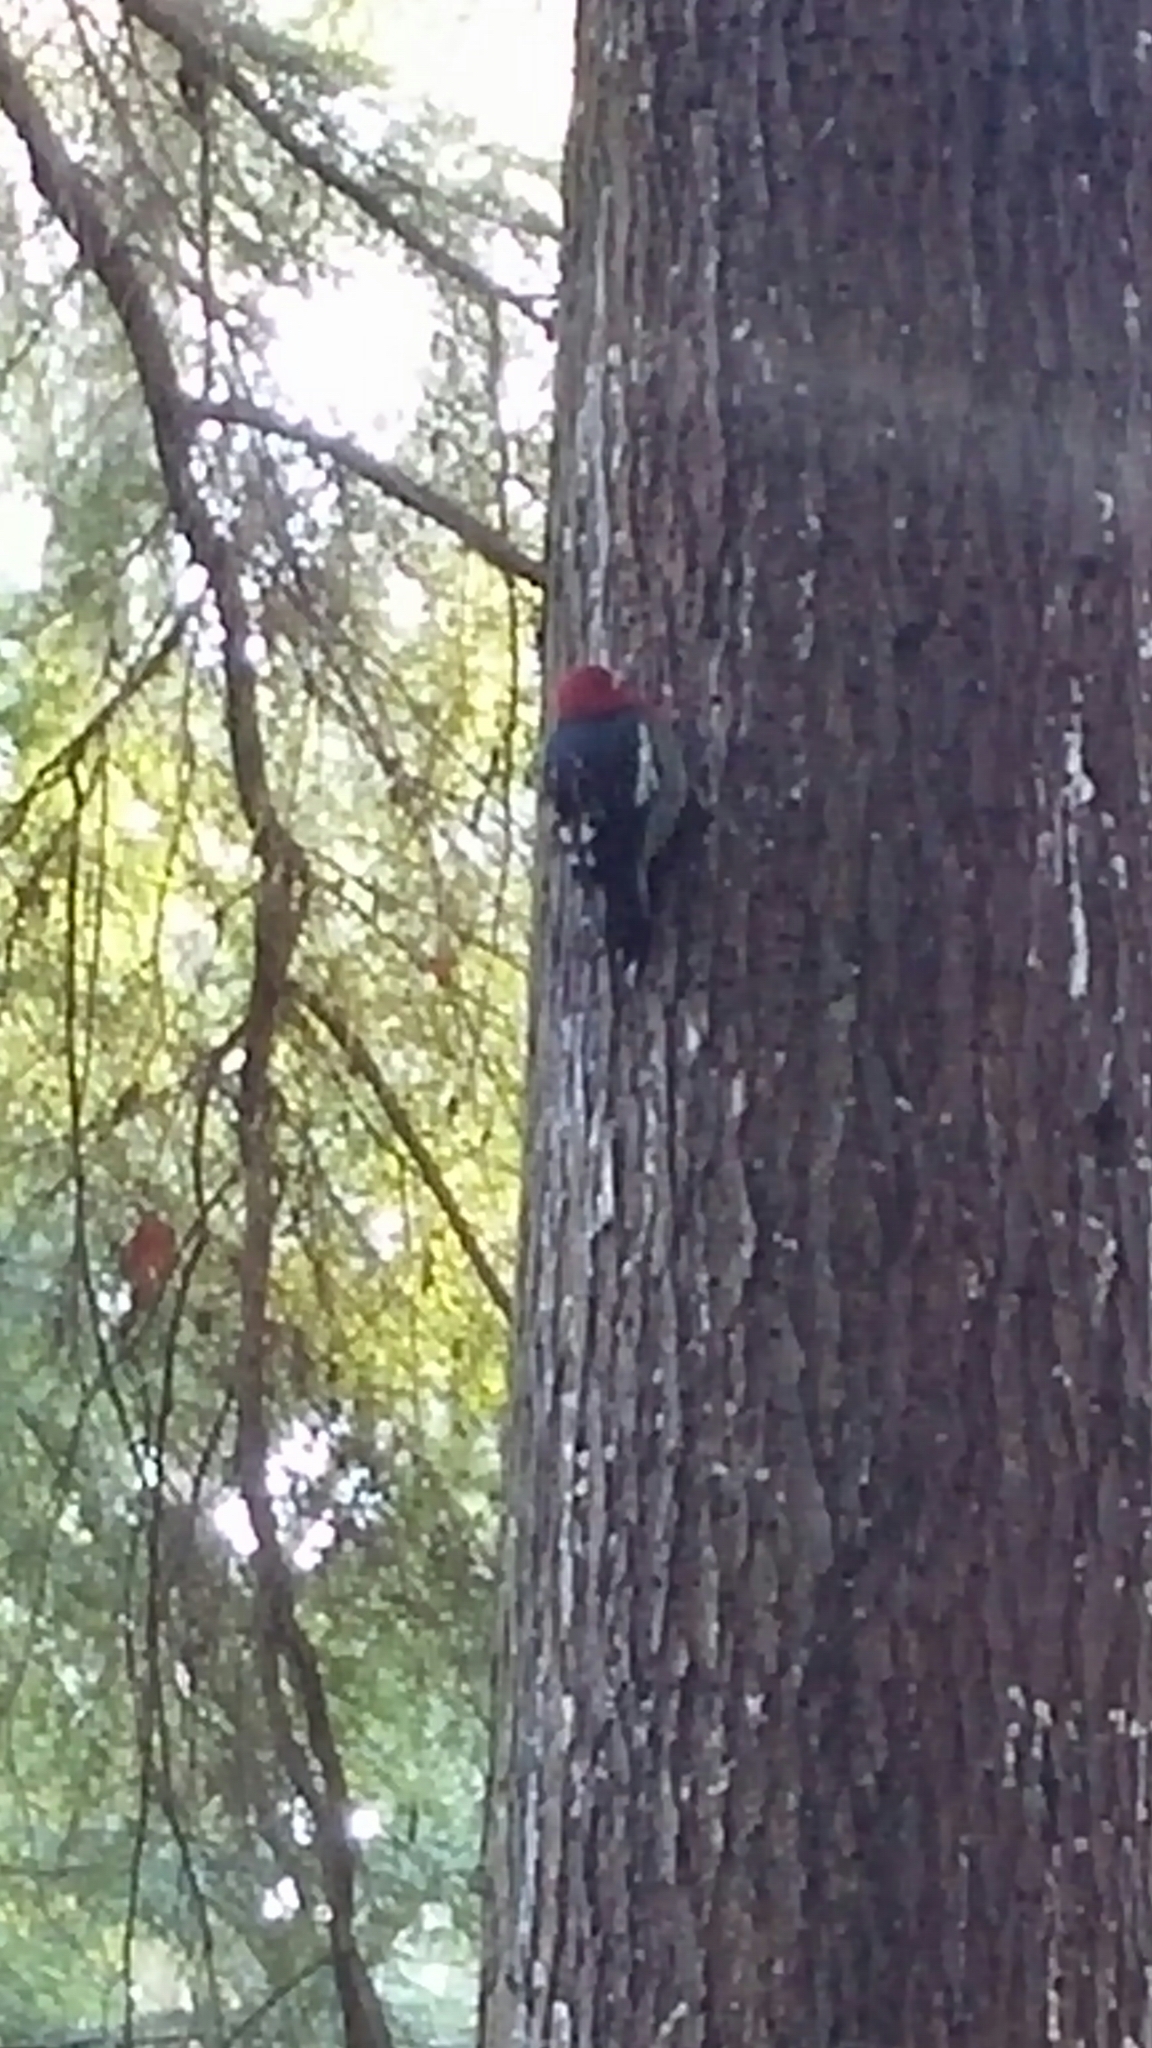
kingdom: Animalia
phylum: Chordata
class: Aves
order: Piciformes
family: Picidae
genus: Sphyrapicus
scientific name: Sphyrapicus ruber
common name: Red-breasted sapsucker
